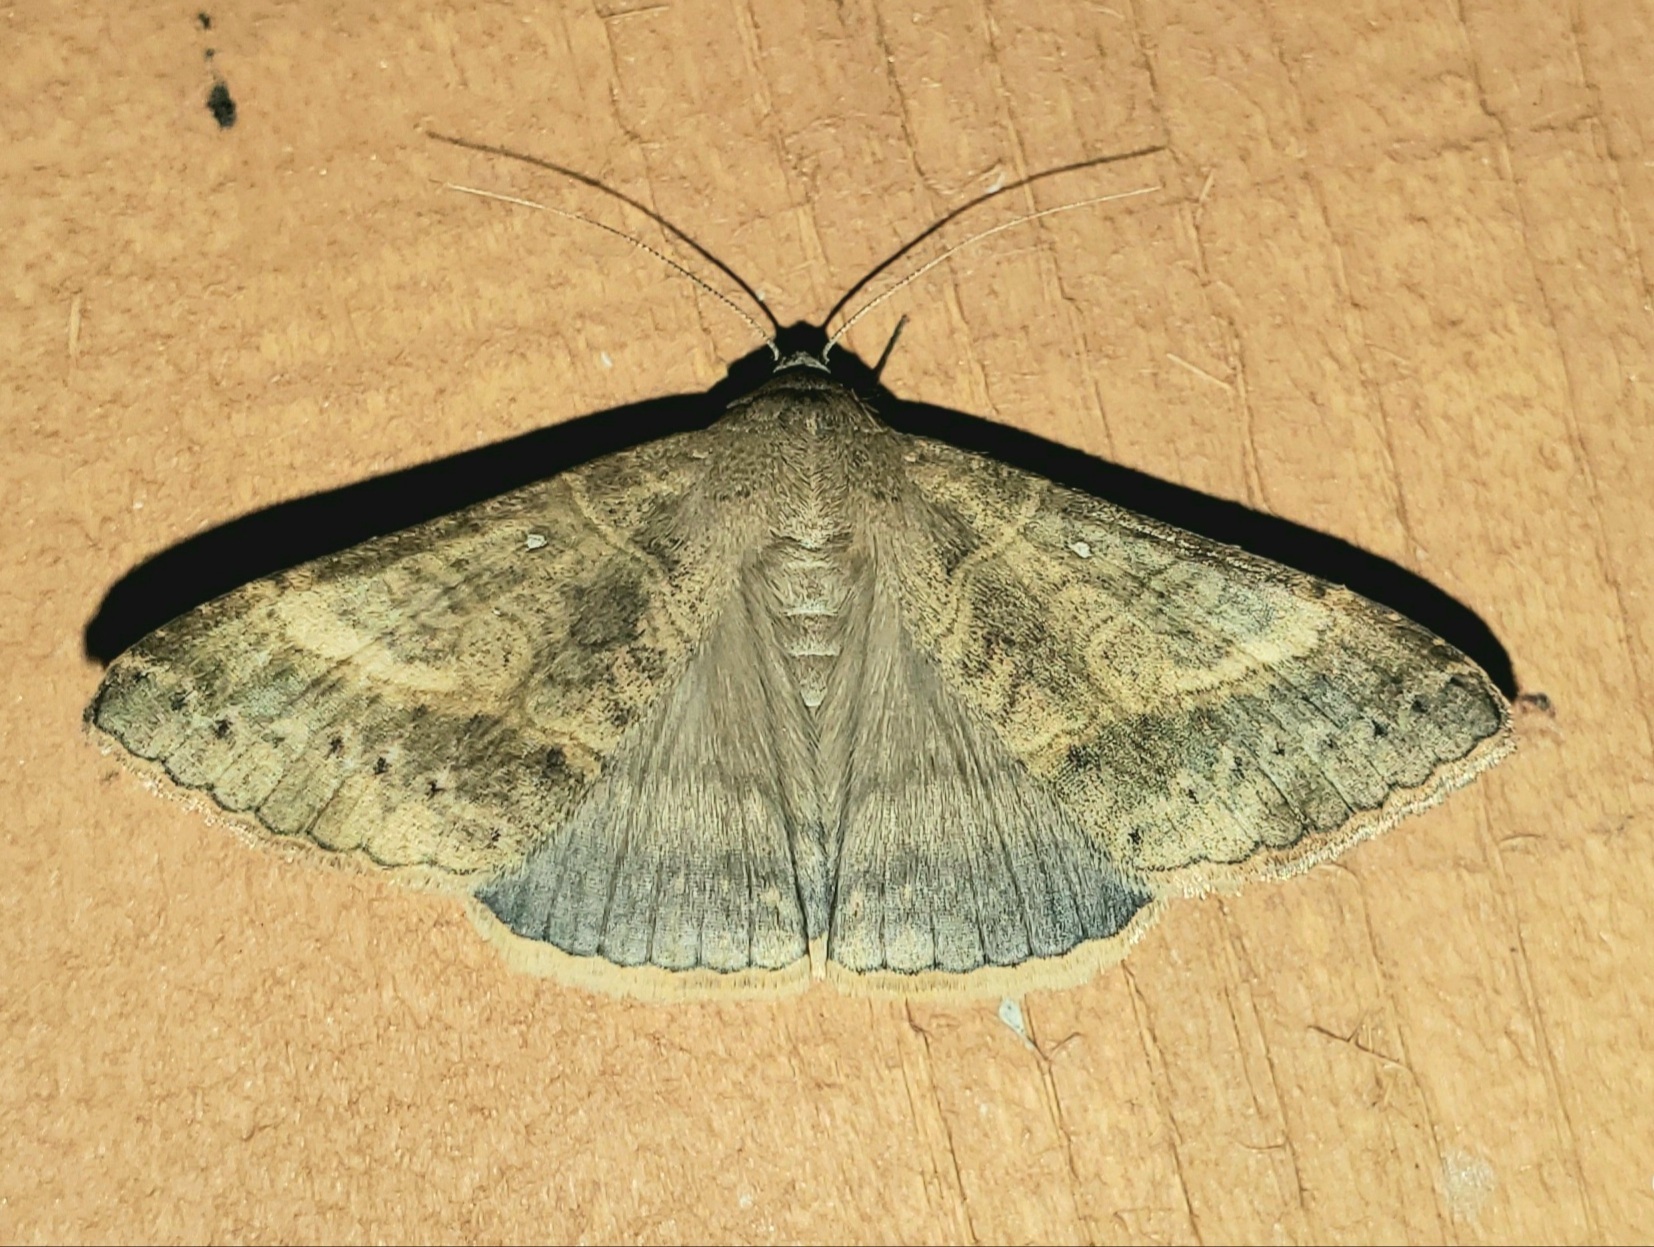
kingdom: Animalia
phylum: Arthropoda
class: Insecta
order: Lepidoptera
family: Erebidae
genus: Mocis
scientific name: Mocis latipes
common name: Striped grass looper
